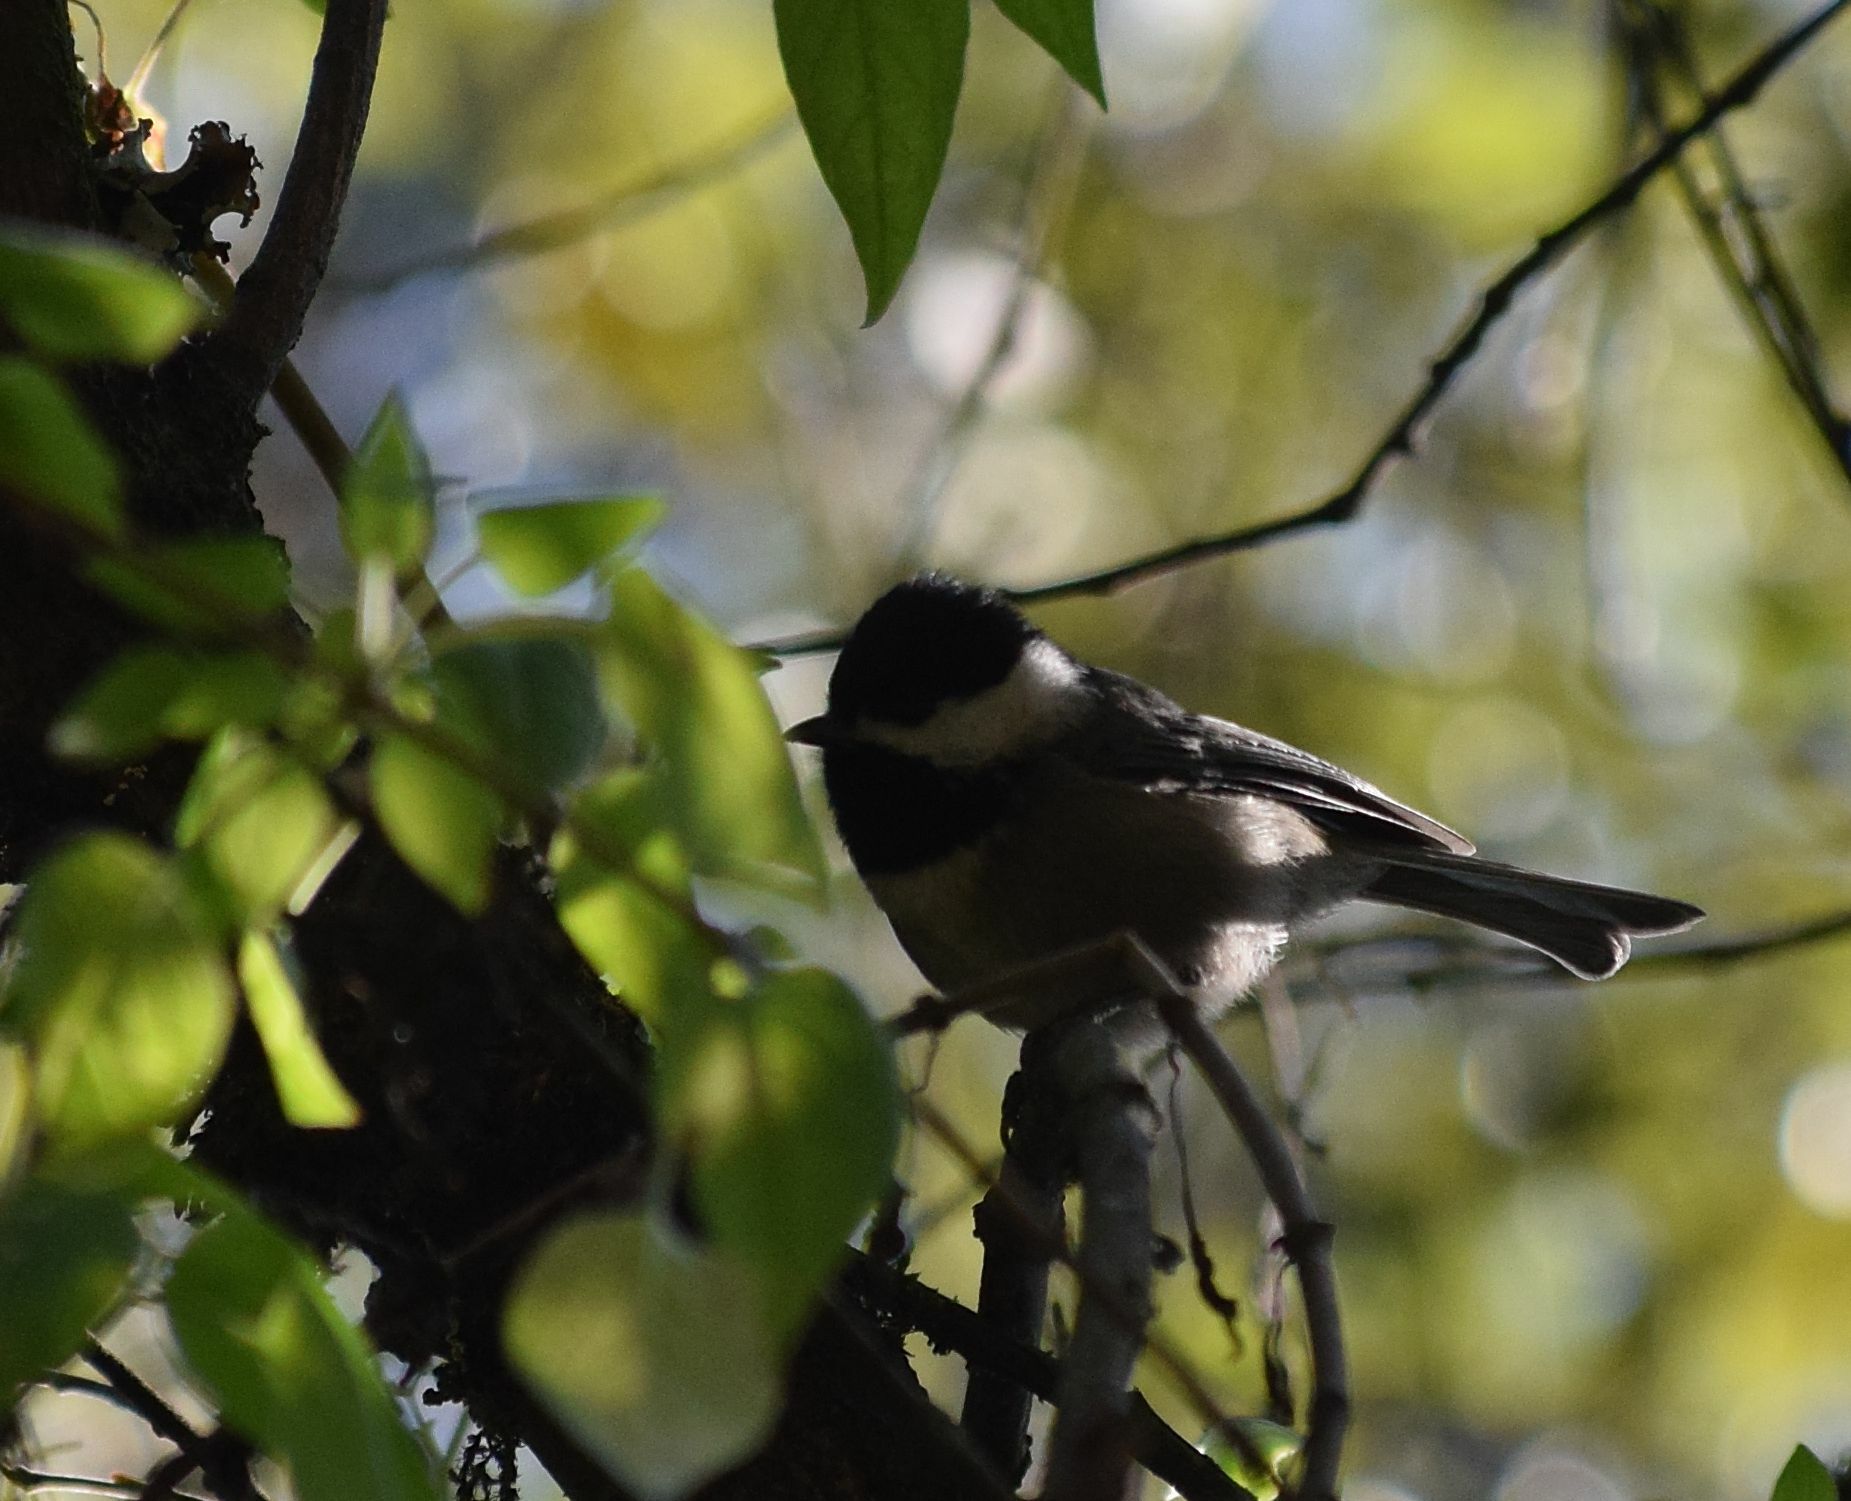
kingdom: Animalia
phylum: Chordata
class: Aves
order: Passeriformes
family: Paridae
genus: Poecile
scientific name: Poecile sclateri
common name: Mexican chickadee
